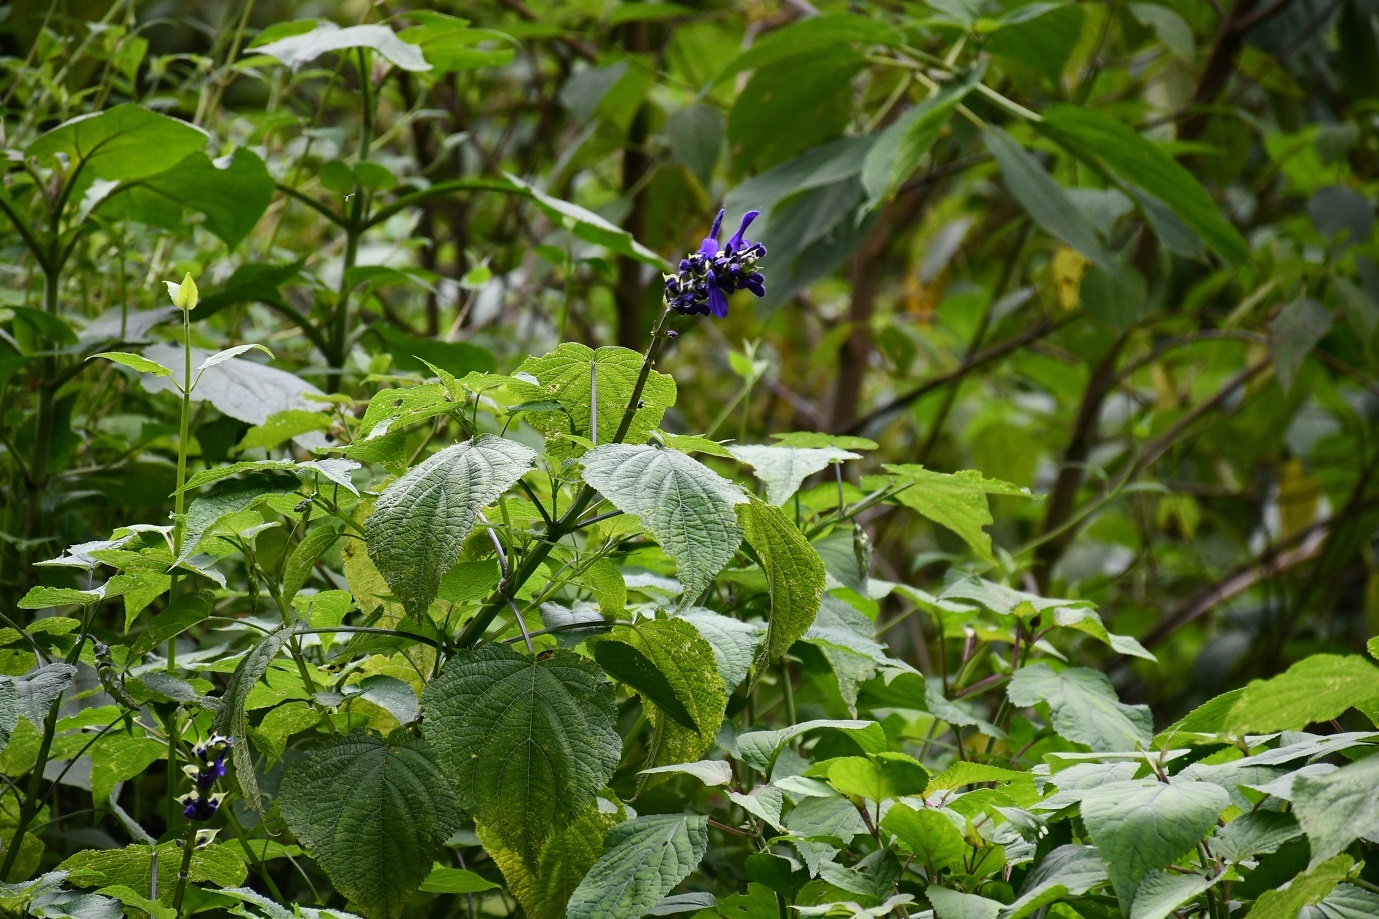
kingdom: Plantae
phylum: Tracheophyta
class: Magnoliopsida
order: Lamiales
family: Lamiaceae
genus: Salvia
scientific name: Salvia recurva
